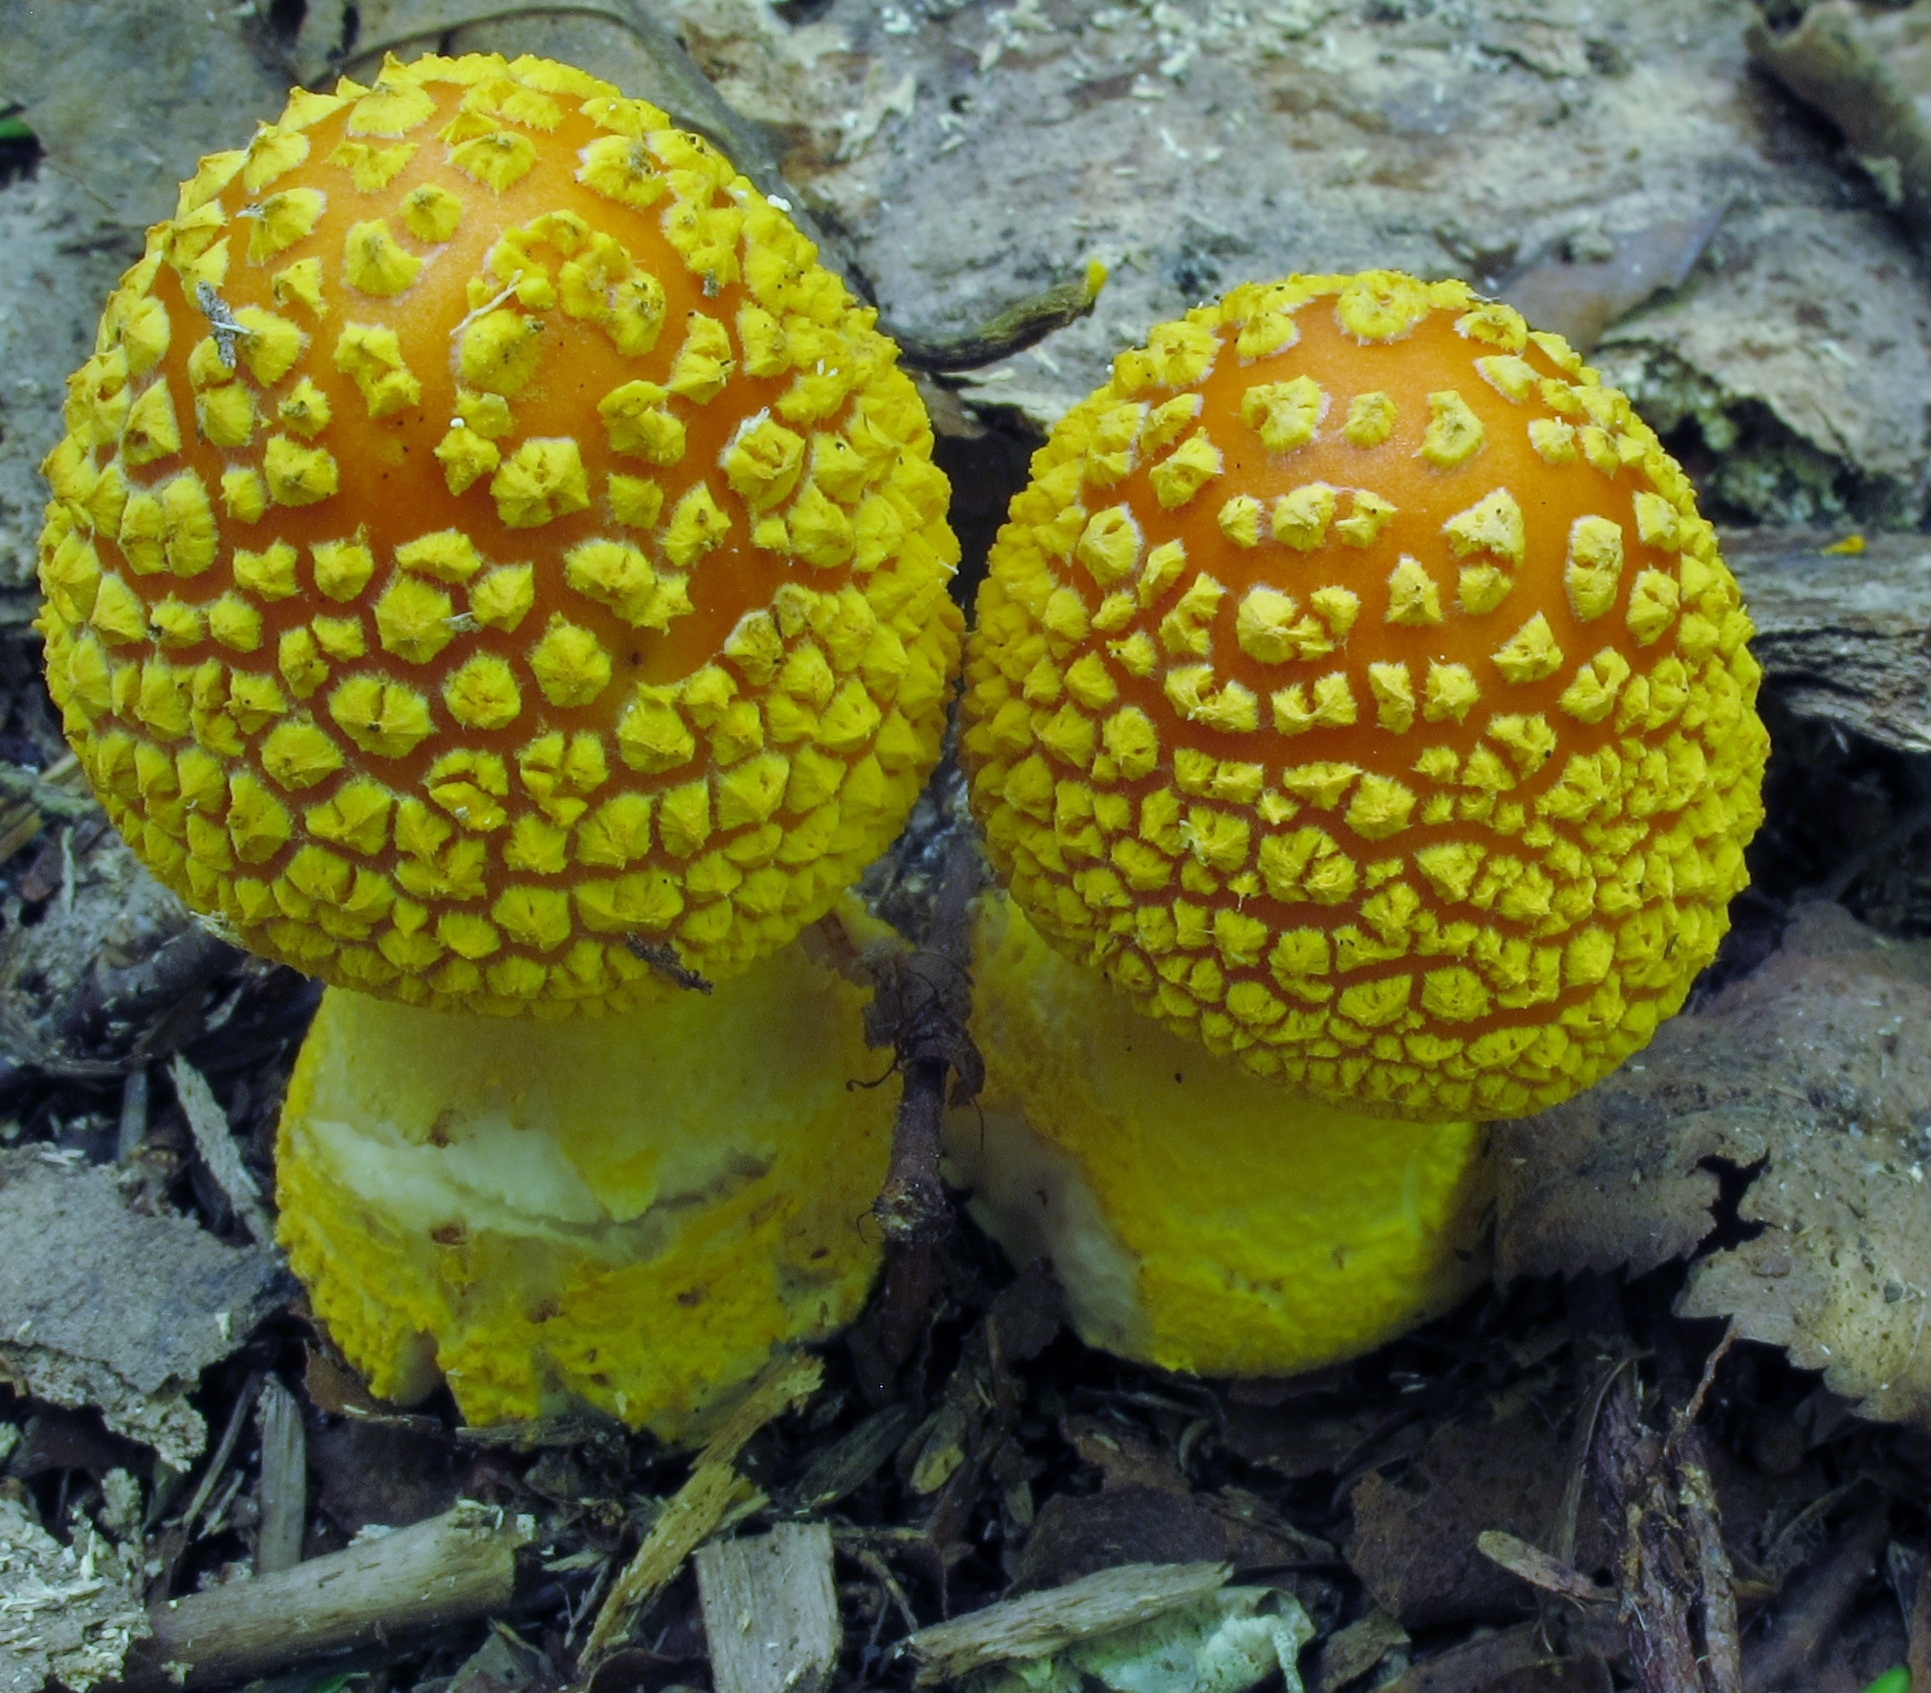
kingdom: Fungi
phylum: Basidiomycota
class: Agaricomycetes
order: Agaricales
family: Amanitaceae
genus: Amanita
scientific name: Amanita flavoconia
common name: Yellow patches
